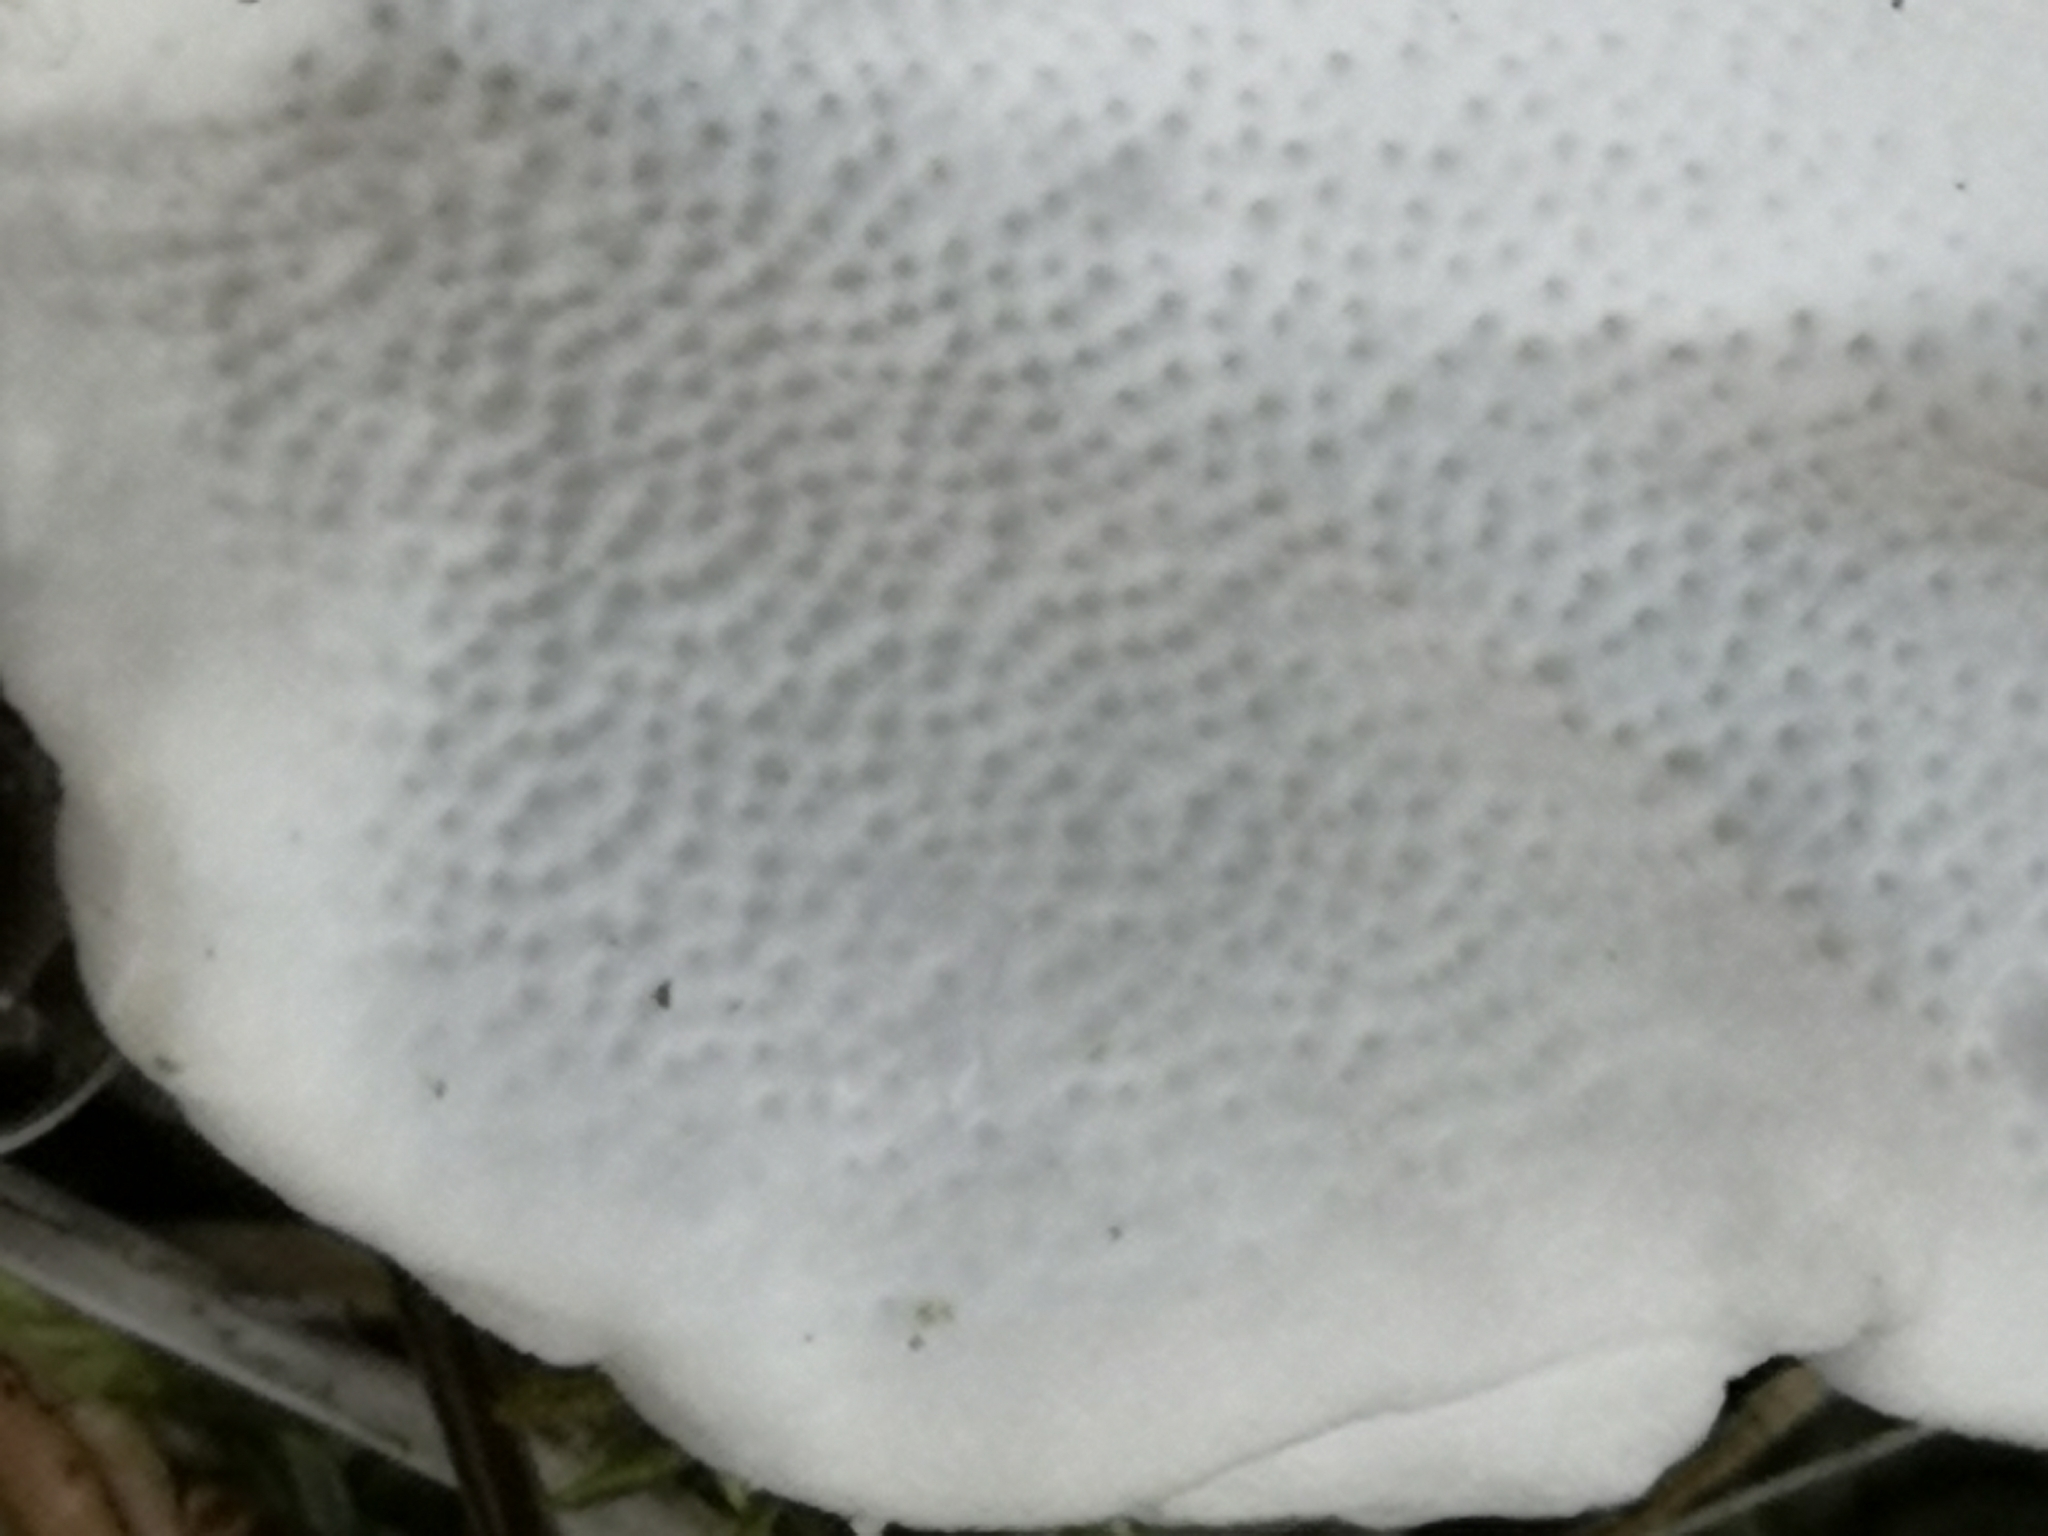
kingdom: Fungi
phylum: Basidiomycota
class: Agaricomycetes
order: Polyporales
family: Polyporaceae
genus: Trametes
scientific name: Trametes versicolor
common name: Turkeytail
